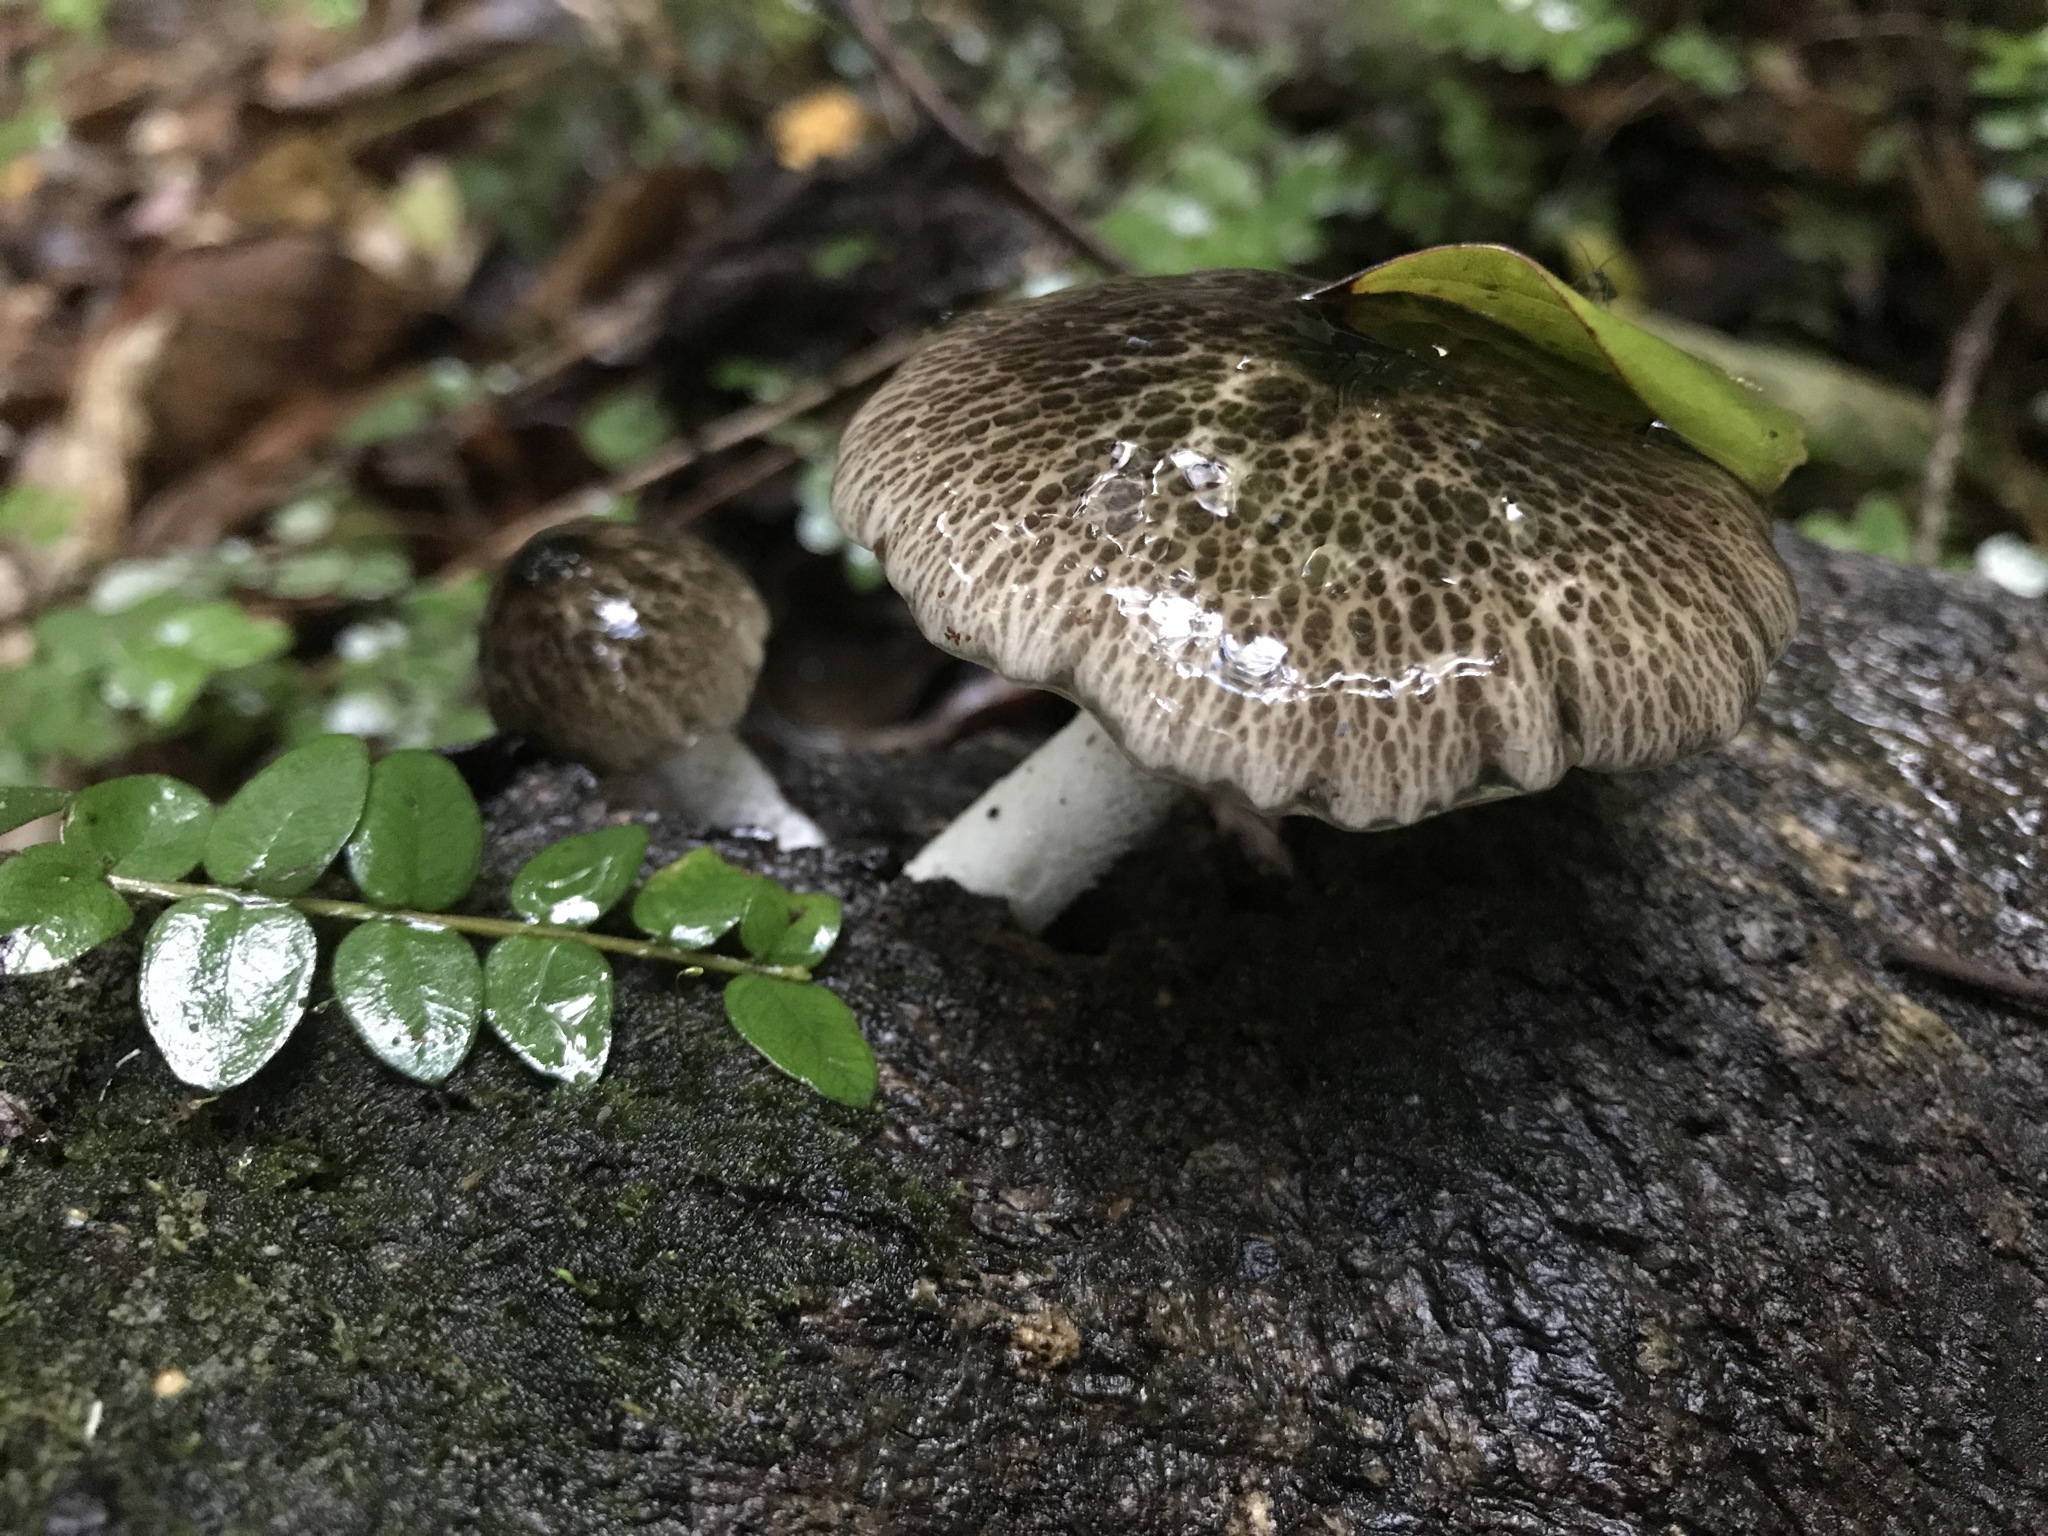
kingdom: Fungi
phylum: Basidiomycota
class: Agaricomycetes
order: Agaricales
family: Bolbitiaceae
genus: Bolbitius
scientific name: Bolbitius muscicola
